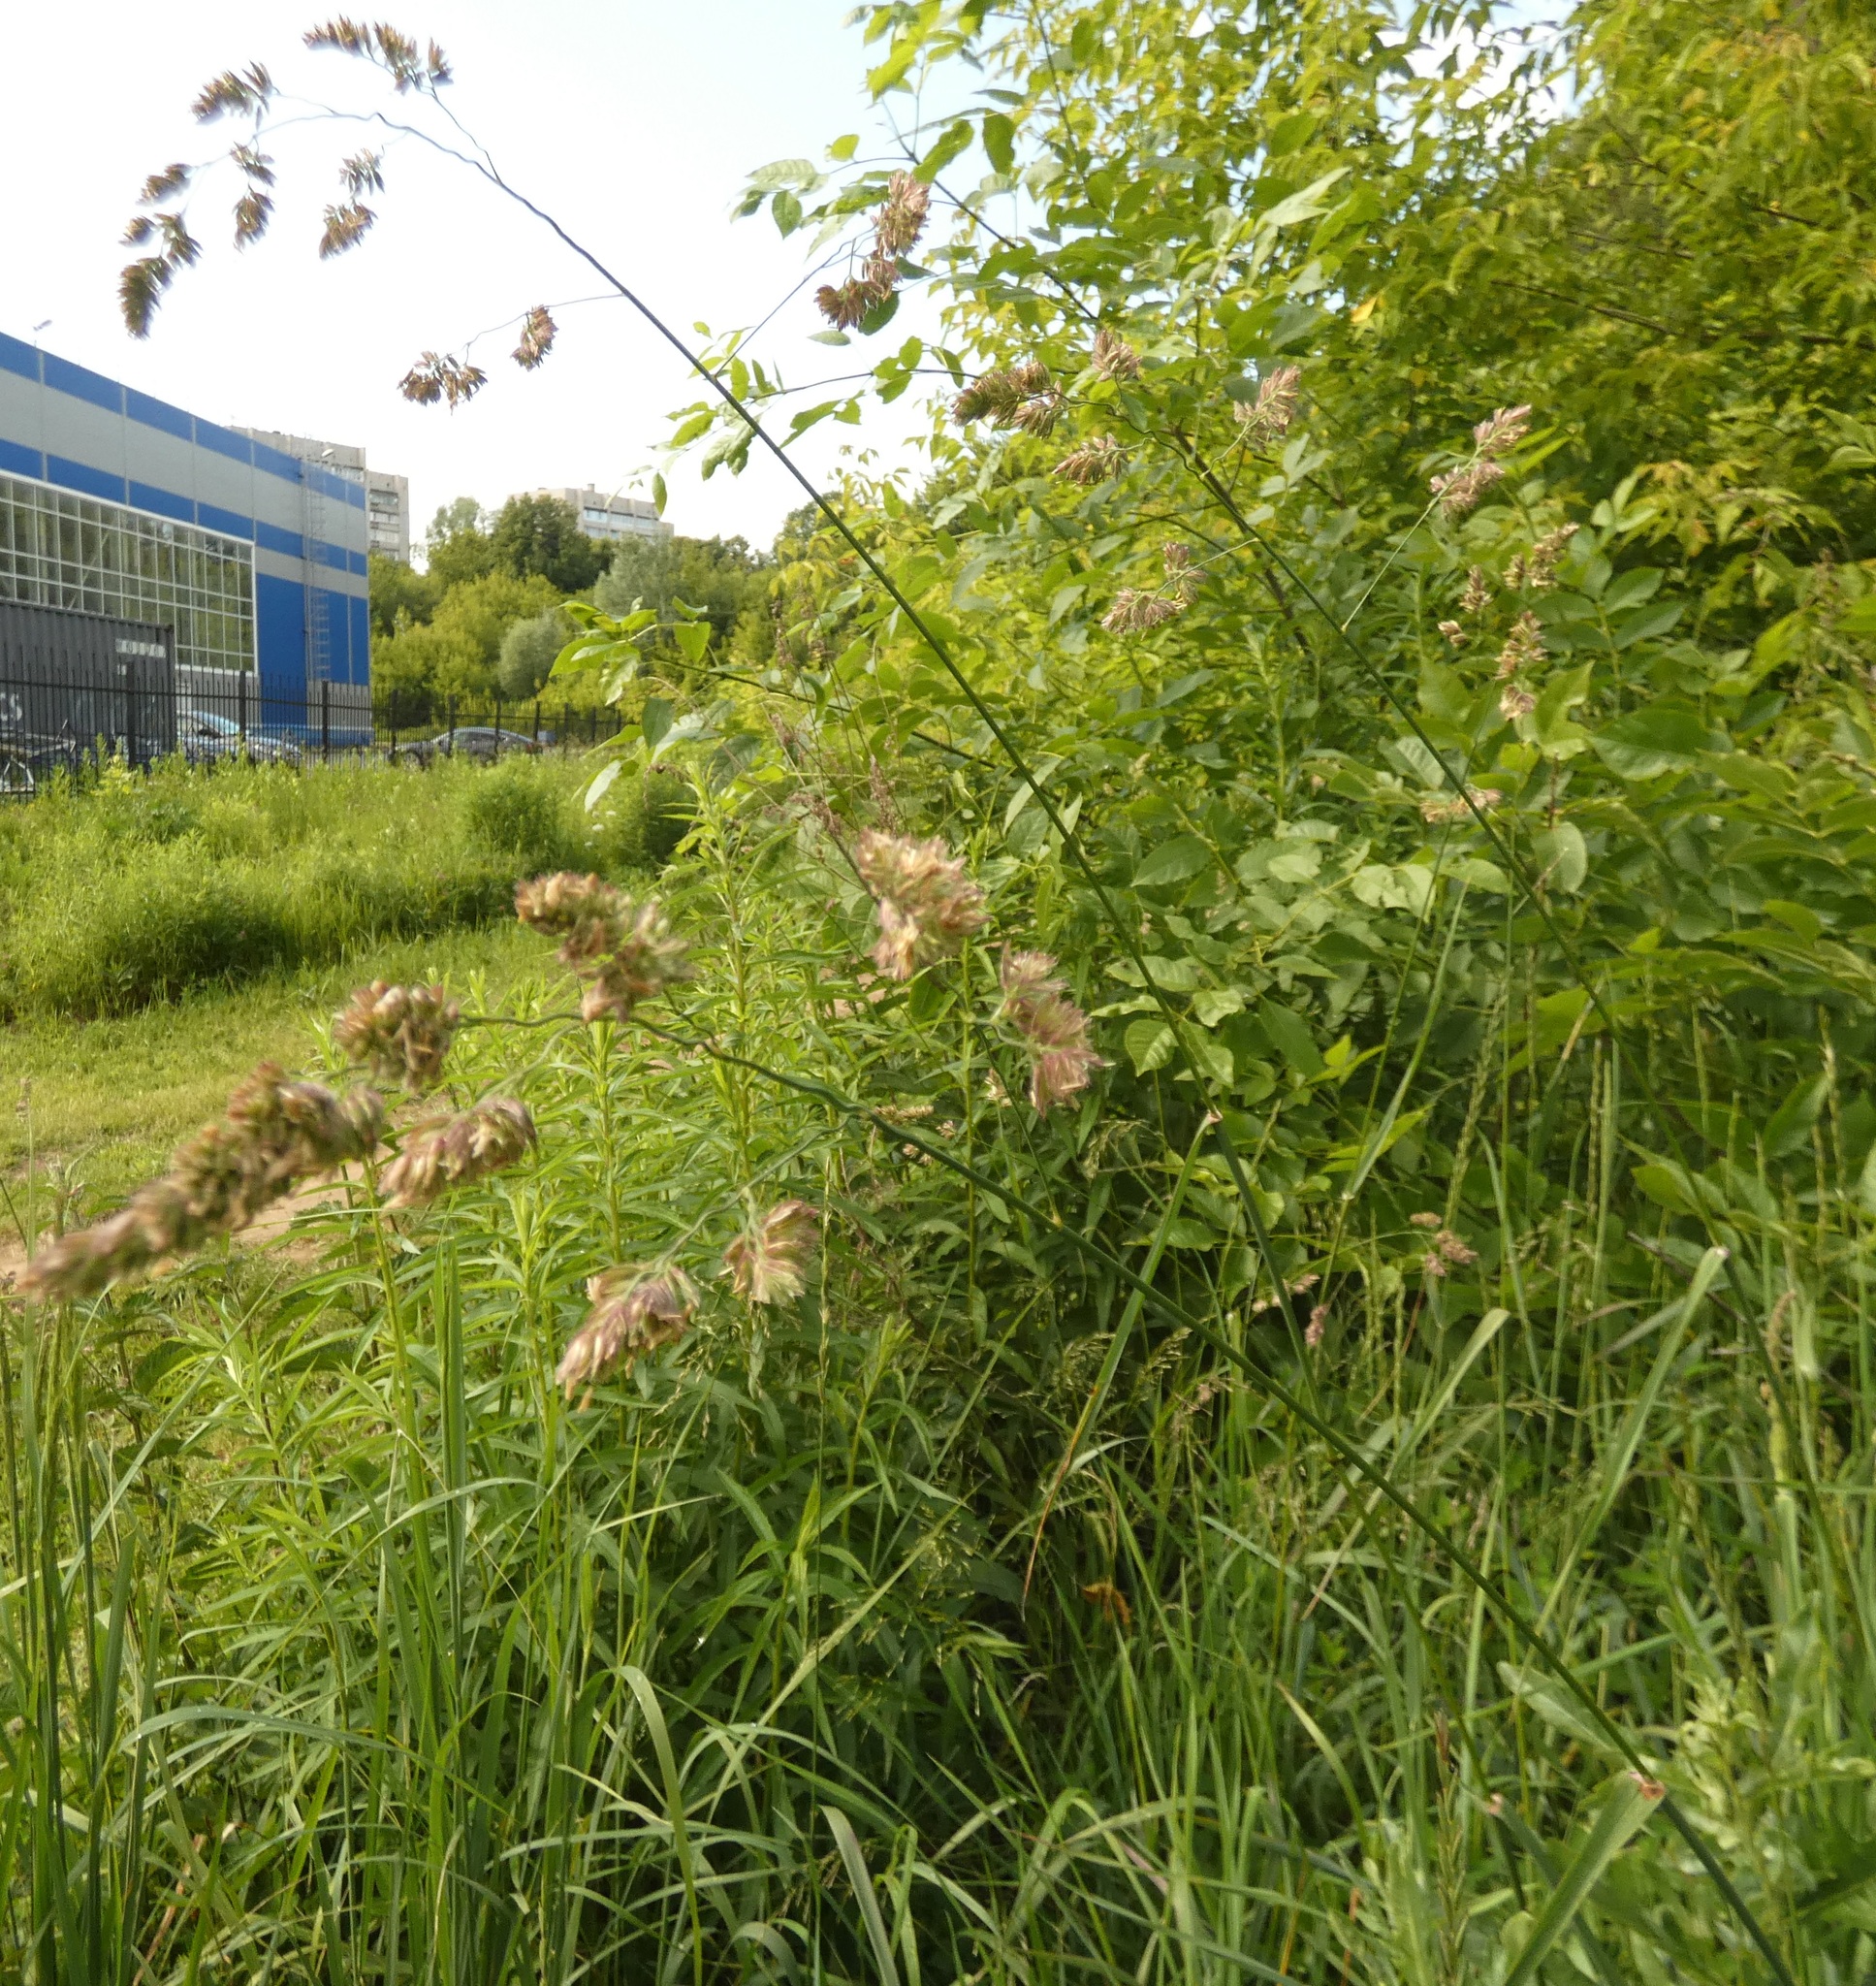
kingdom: Plantae
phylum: Tracheophyta
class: Liliopsida
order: Poales
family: Poaceae
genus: Dactylis
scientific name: Dactylis glomerata
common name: Orchardgrass
